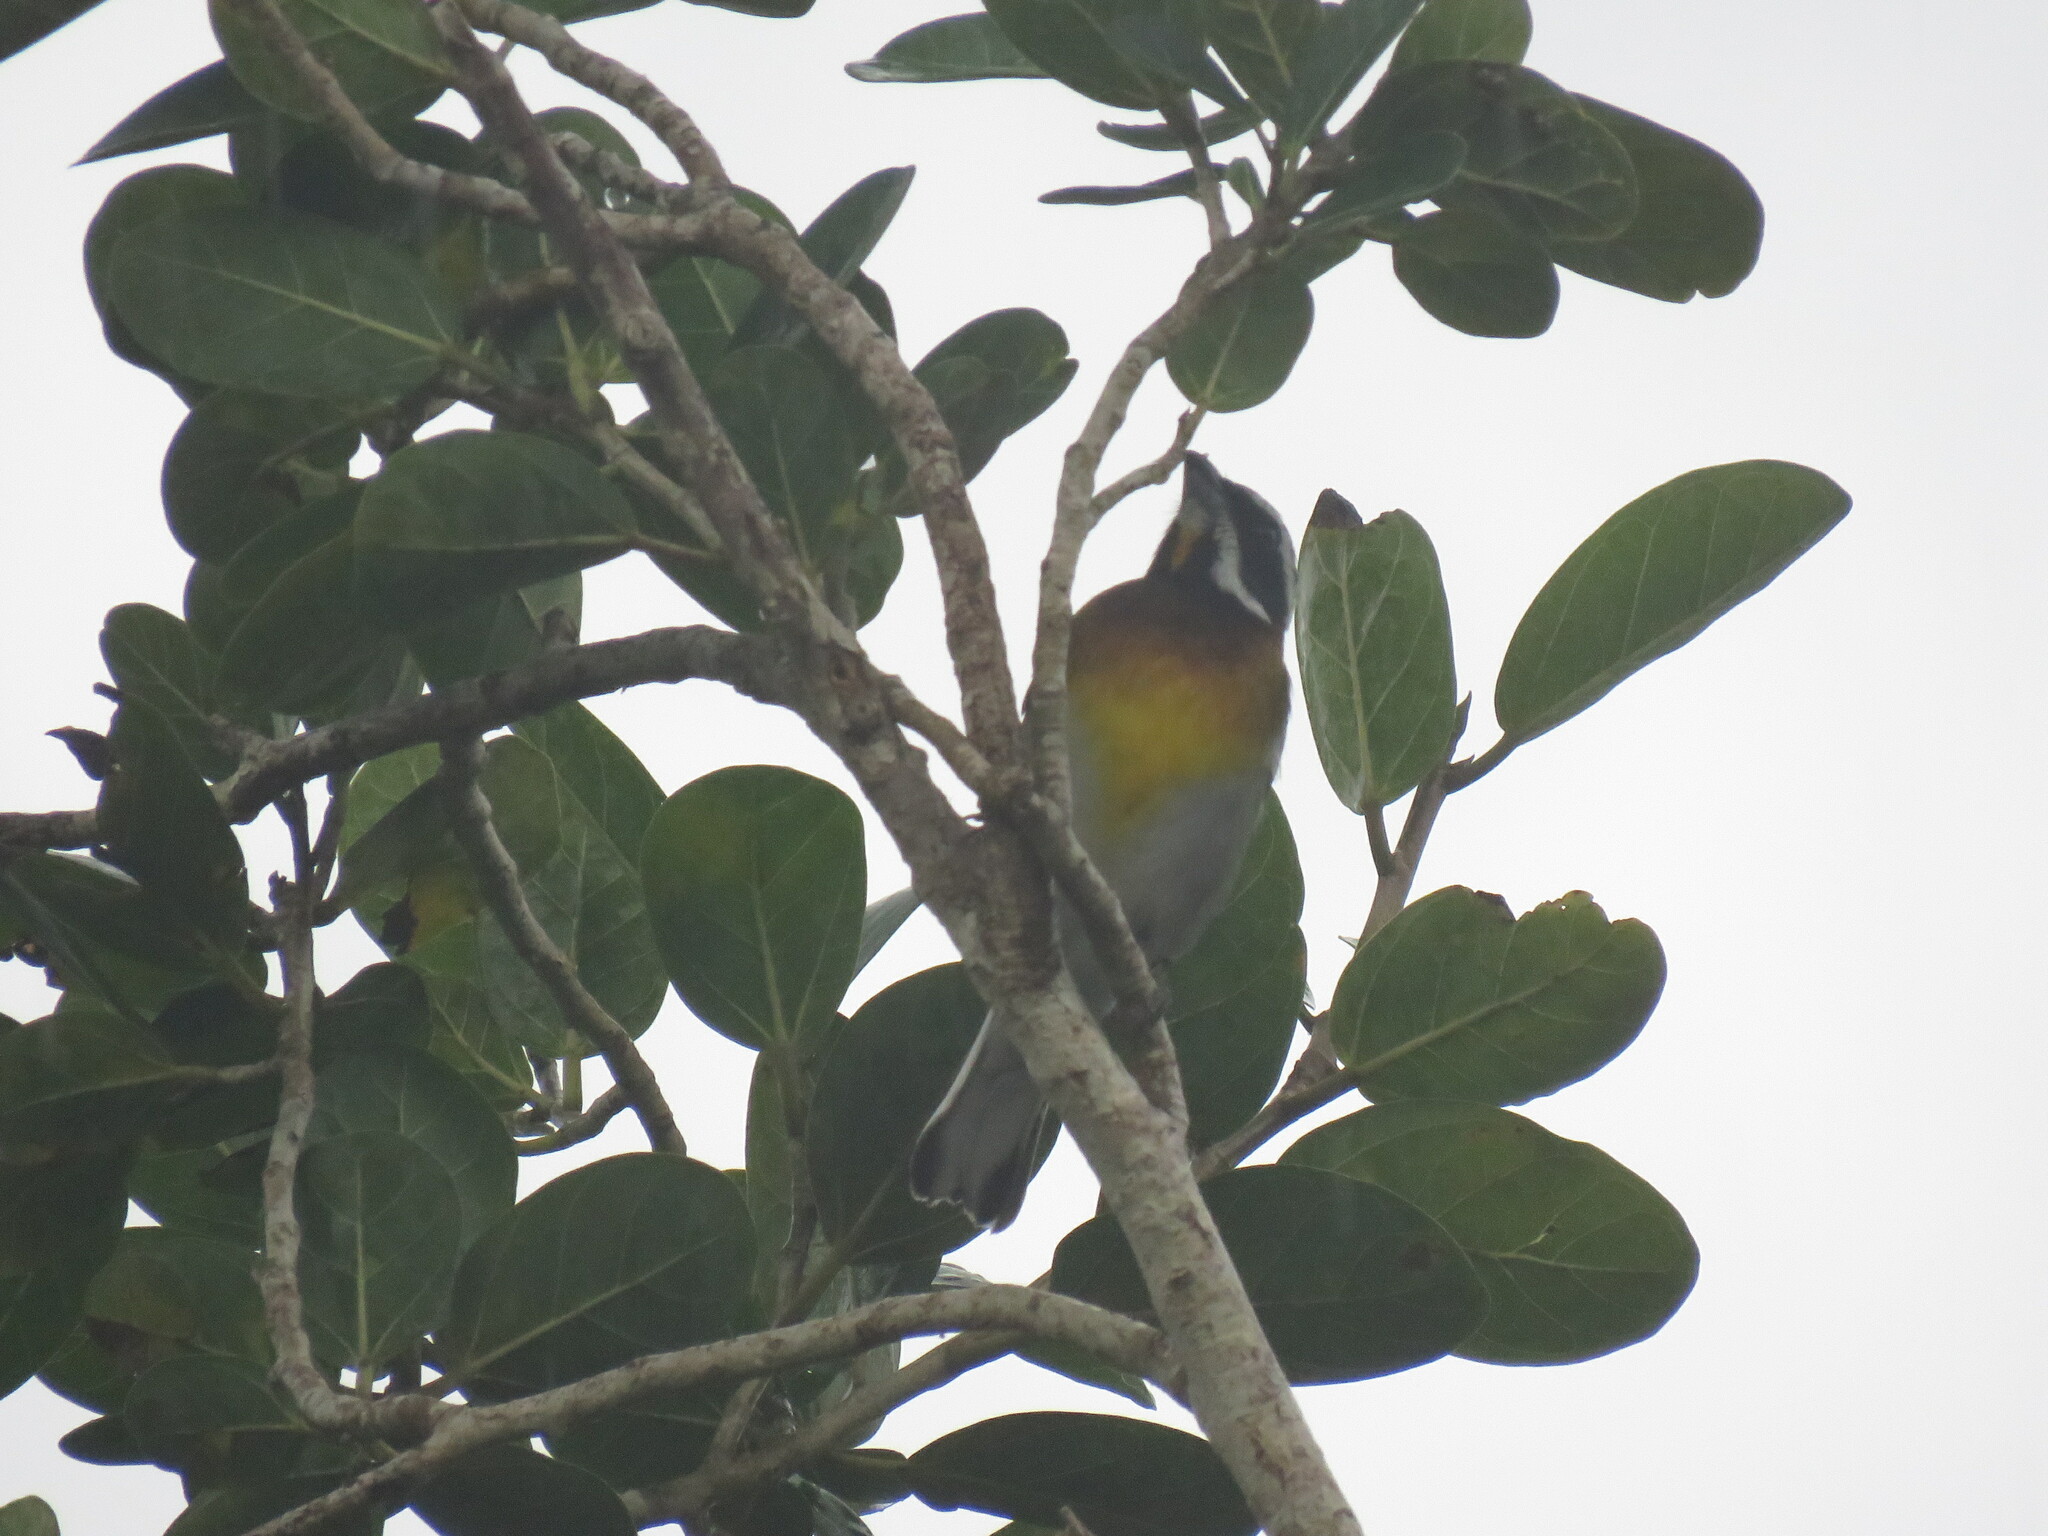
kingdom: Animalia
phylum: Chordata
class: Aves
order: Passeriformes
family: Spindalidae
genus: Spindalis
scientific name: Spindalis zena
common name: Western spindalis
